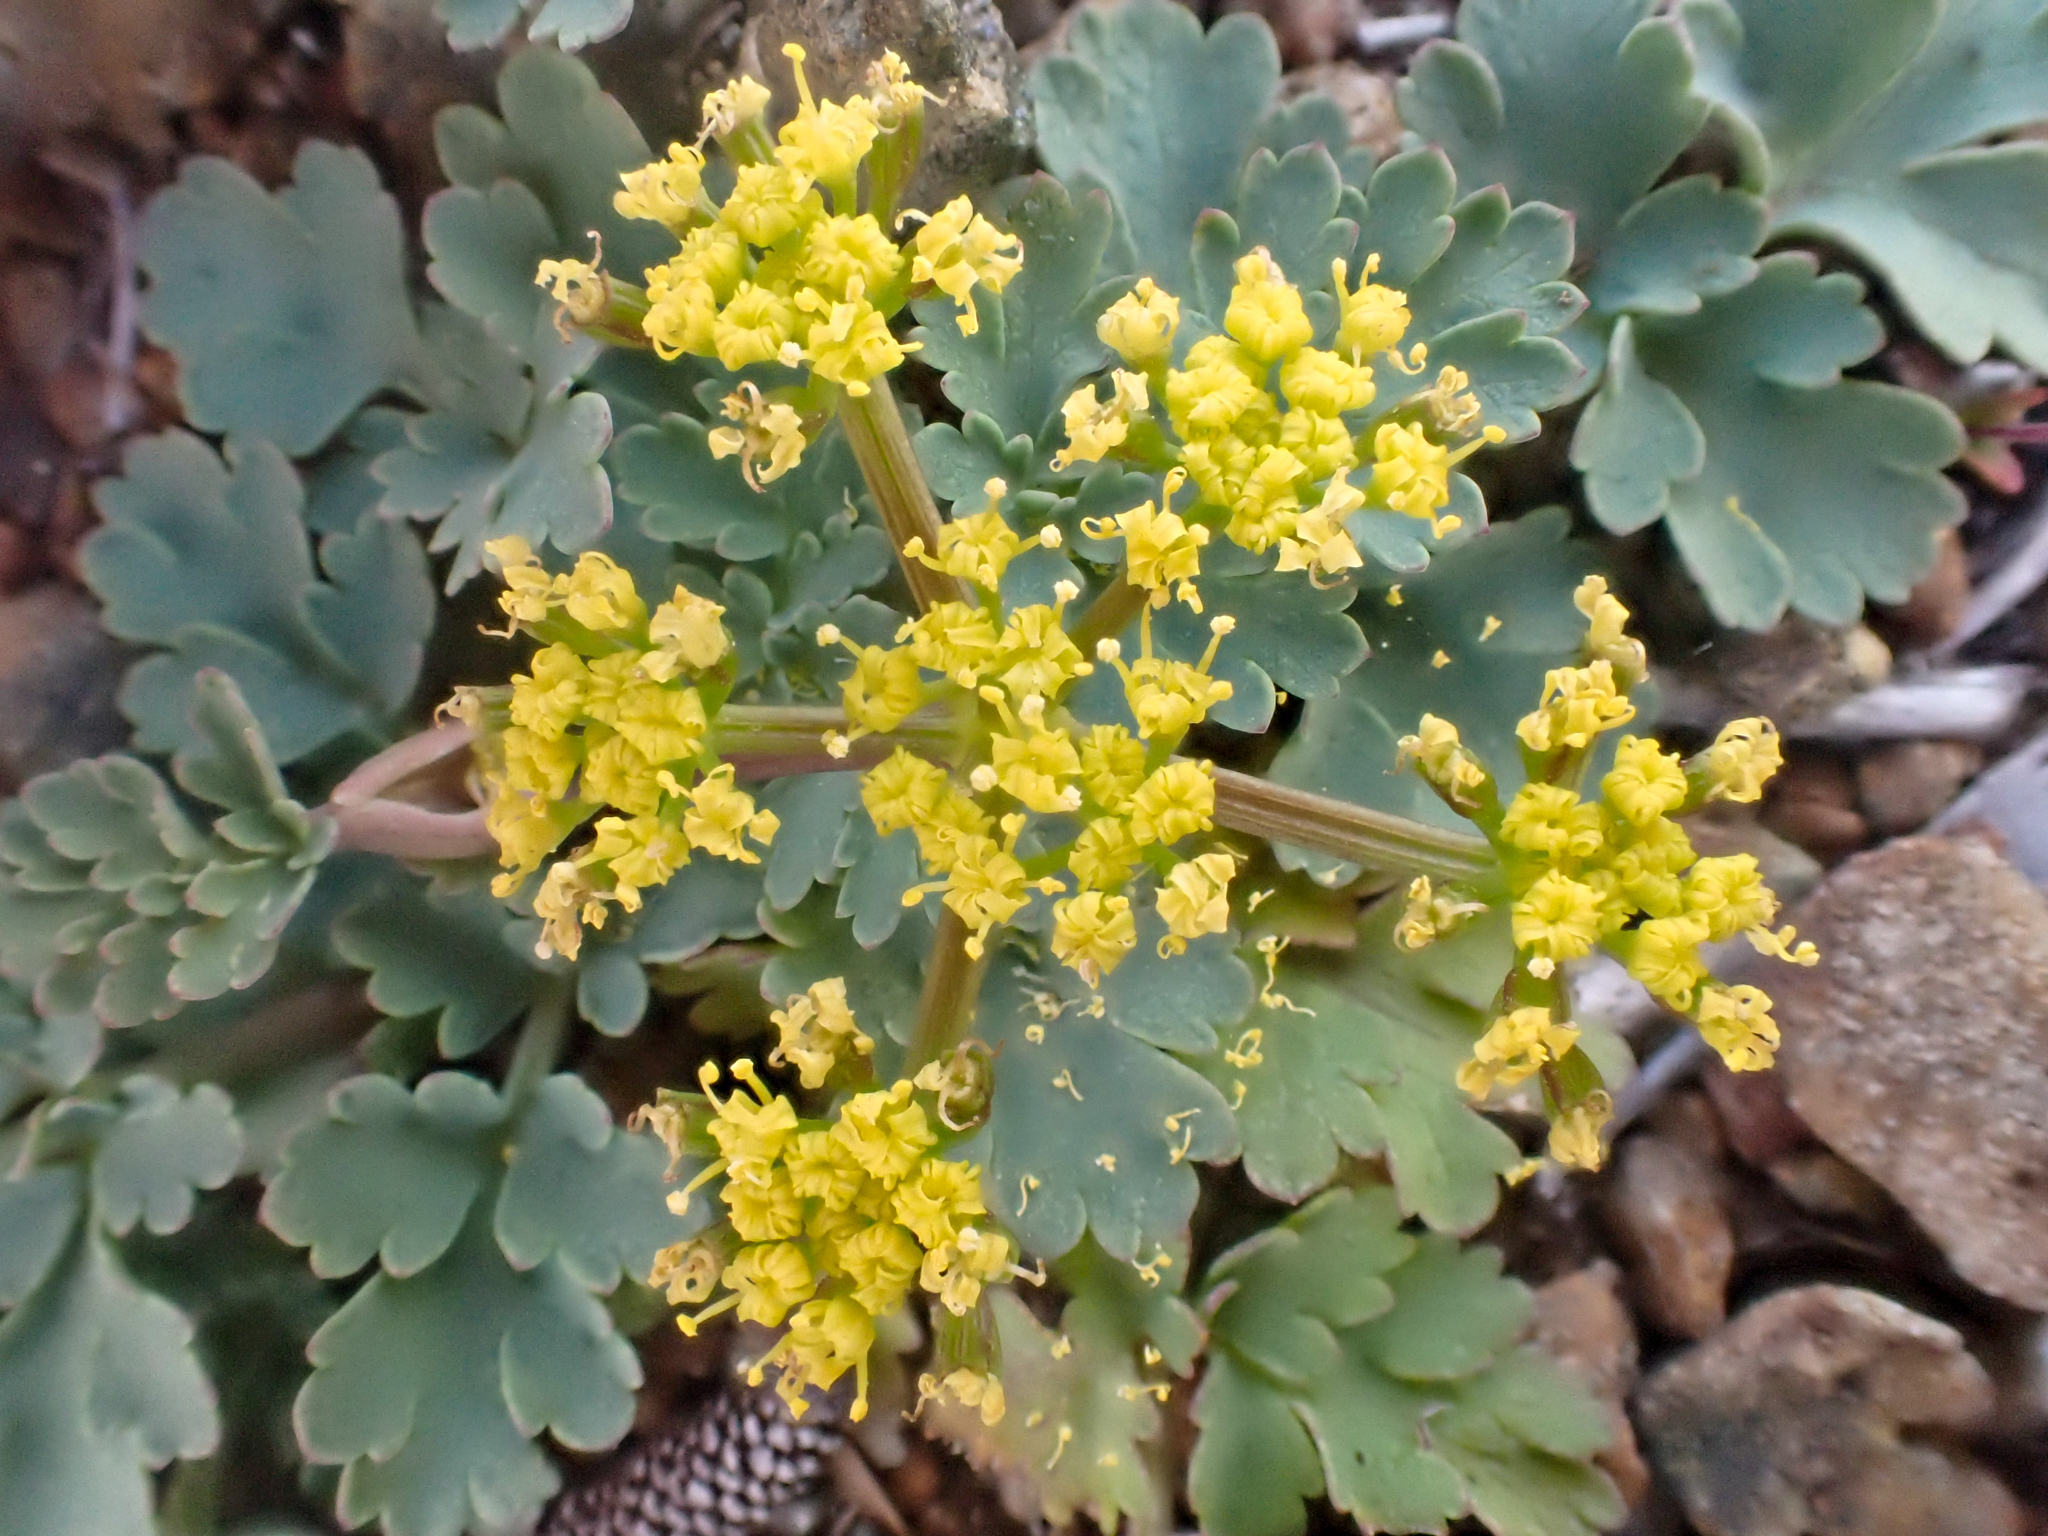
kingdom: Plantae
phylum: Tracheophyta
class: Magnoliopsida
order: Apiales
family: Apiaceae
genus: Lomatium
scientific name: Lomatium martindalei
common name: Cascade desert-parsley
